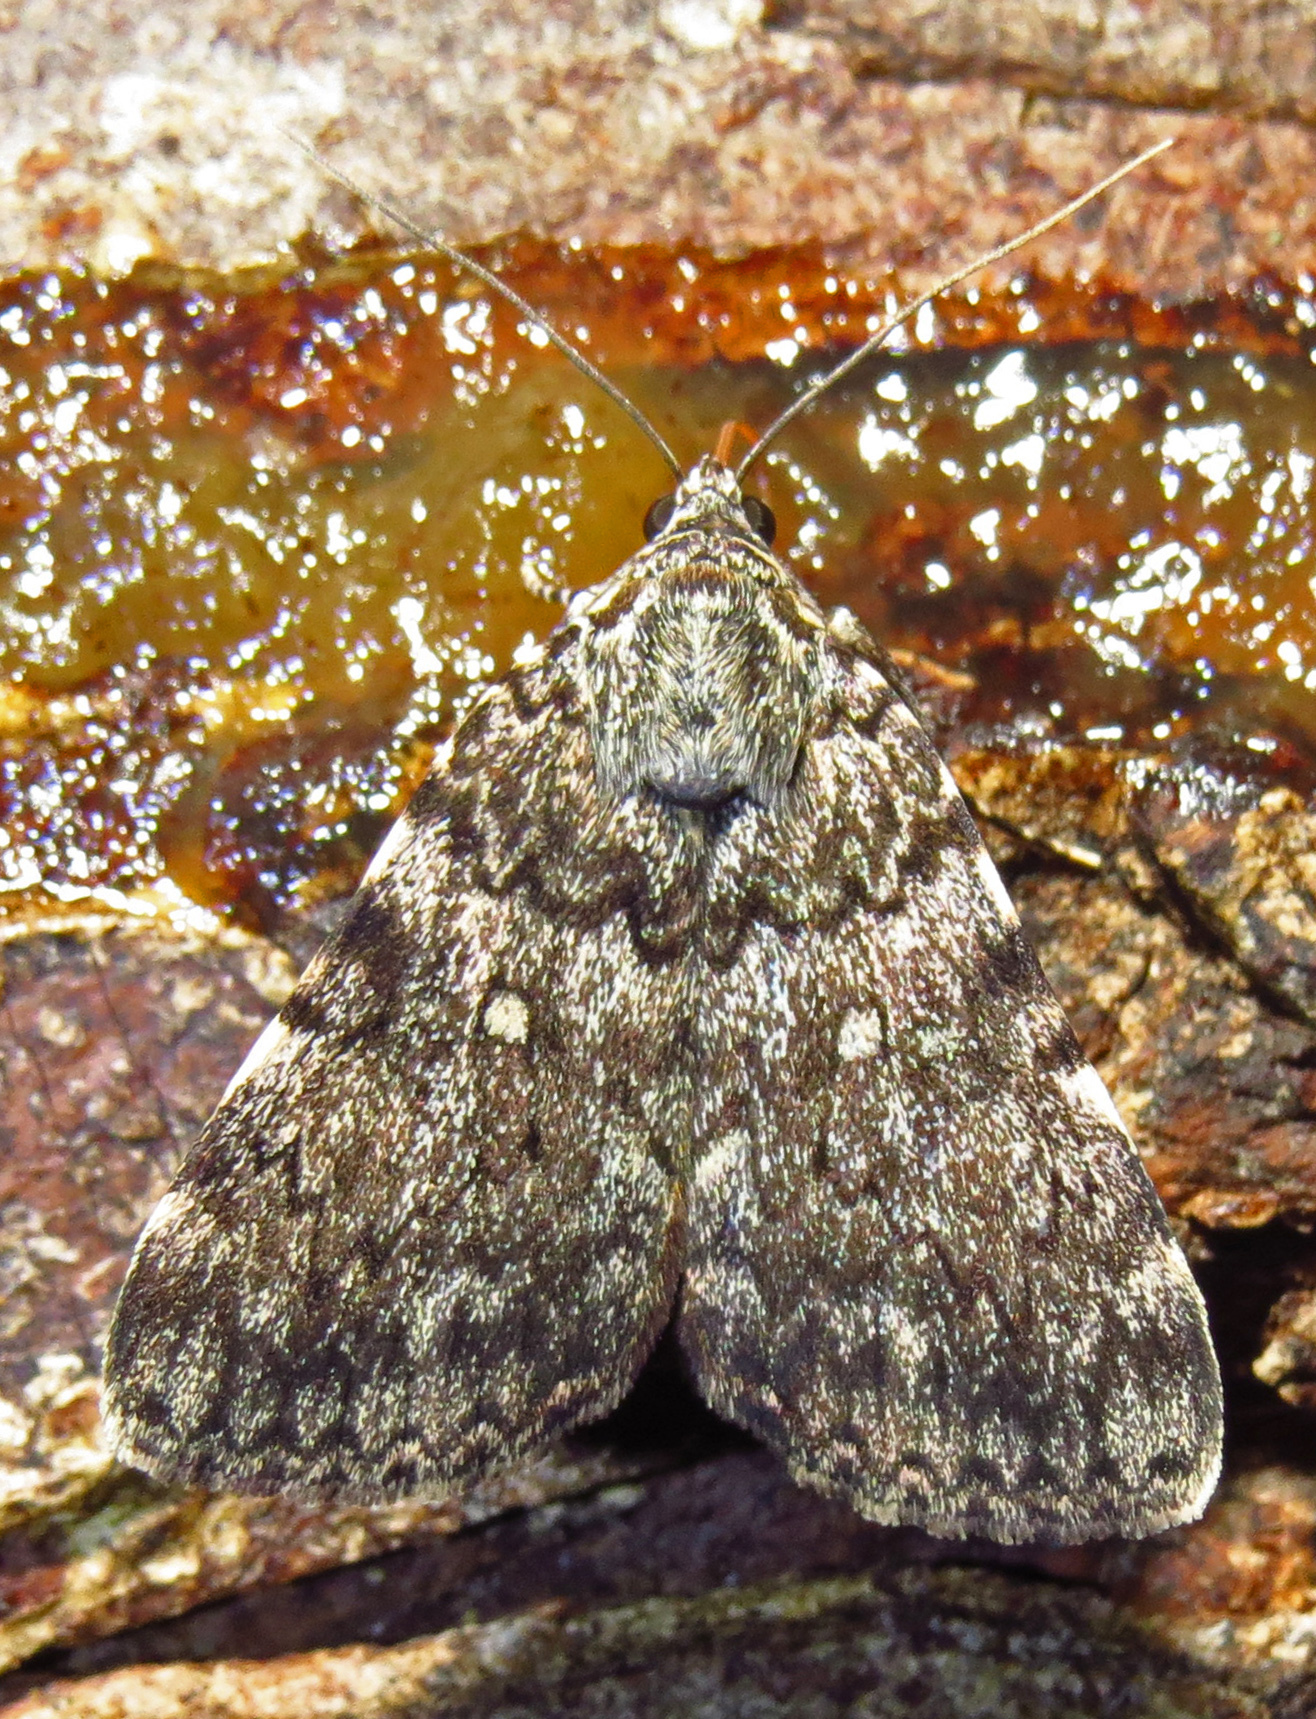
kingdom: Animalia
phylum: Arthropoda
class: Insecta
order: Lepidoptera
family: Erebidae
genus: Catocala
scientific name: Catocala lineella
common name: Little lined underwing
